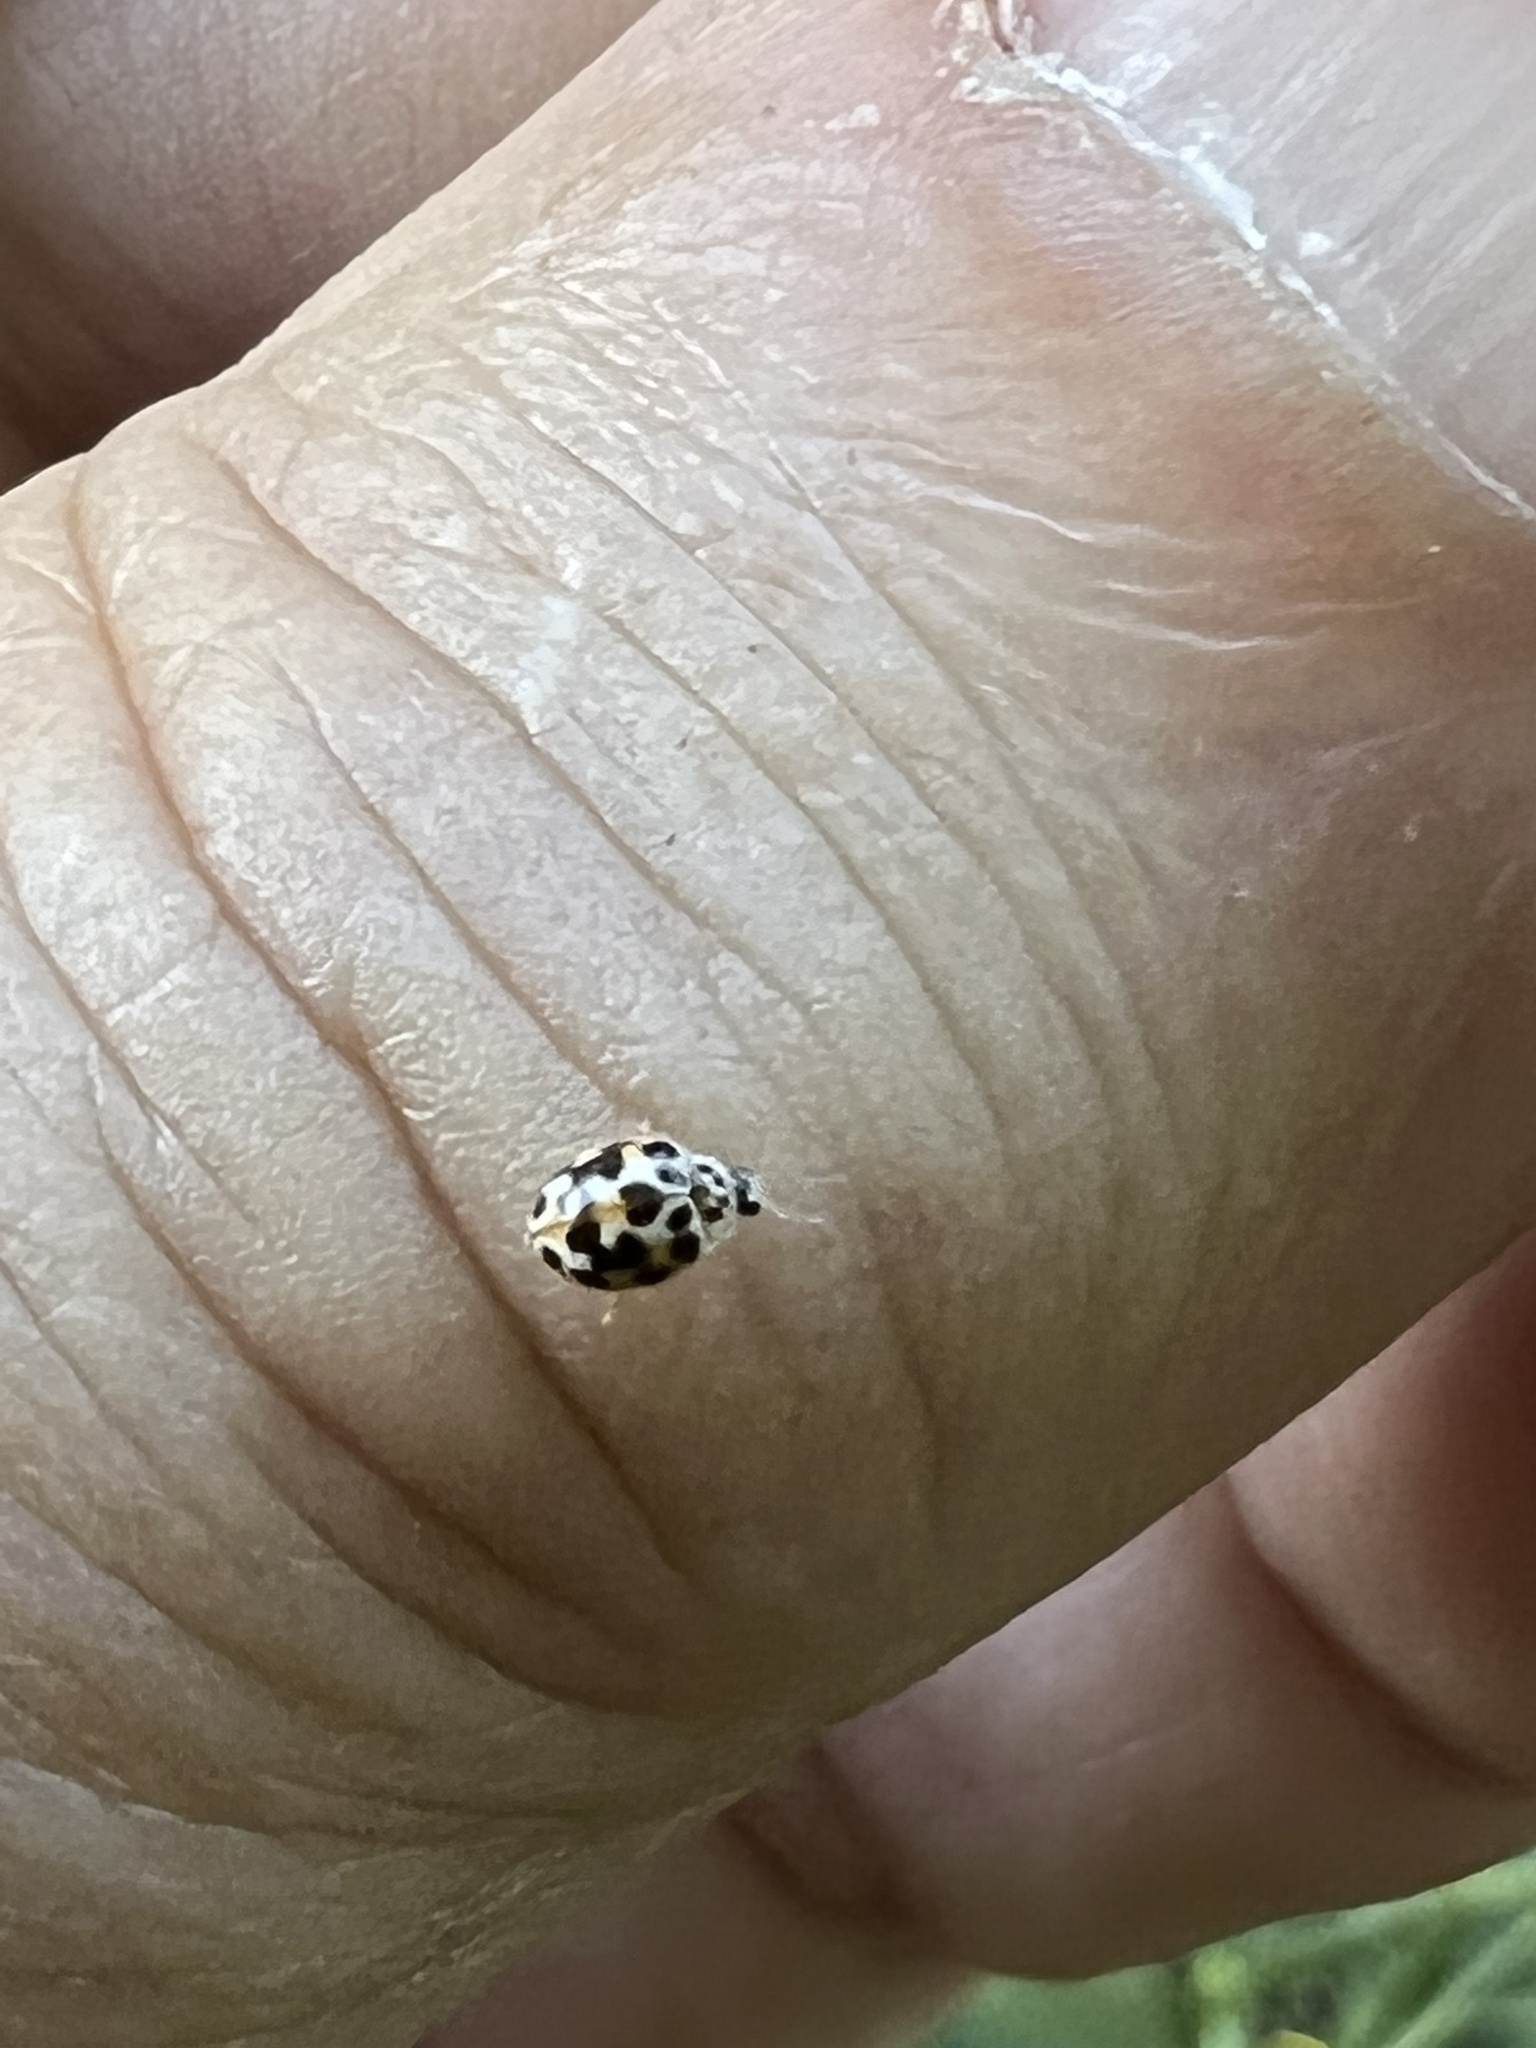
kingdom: Animalia
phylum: Arthropoda
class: Insecta
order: Coleoptera
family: Coccinellidae
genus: Psyllobora
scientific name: Psyllobora vigintimaculata
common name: Ladybird beetle
